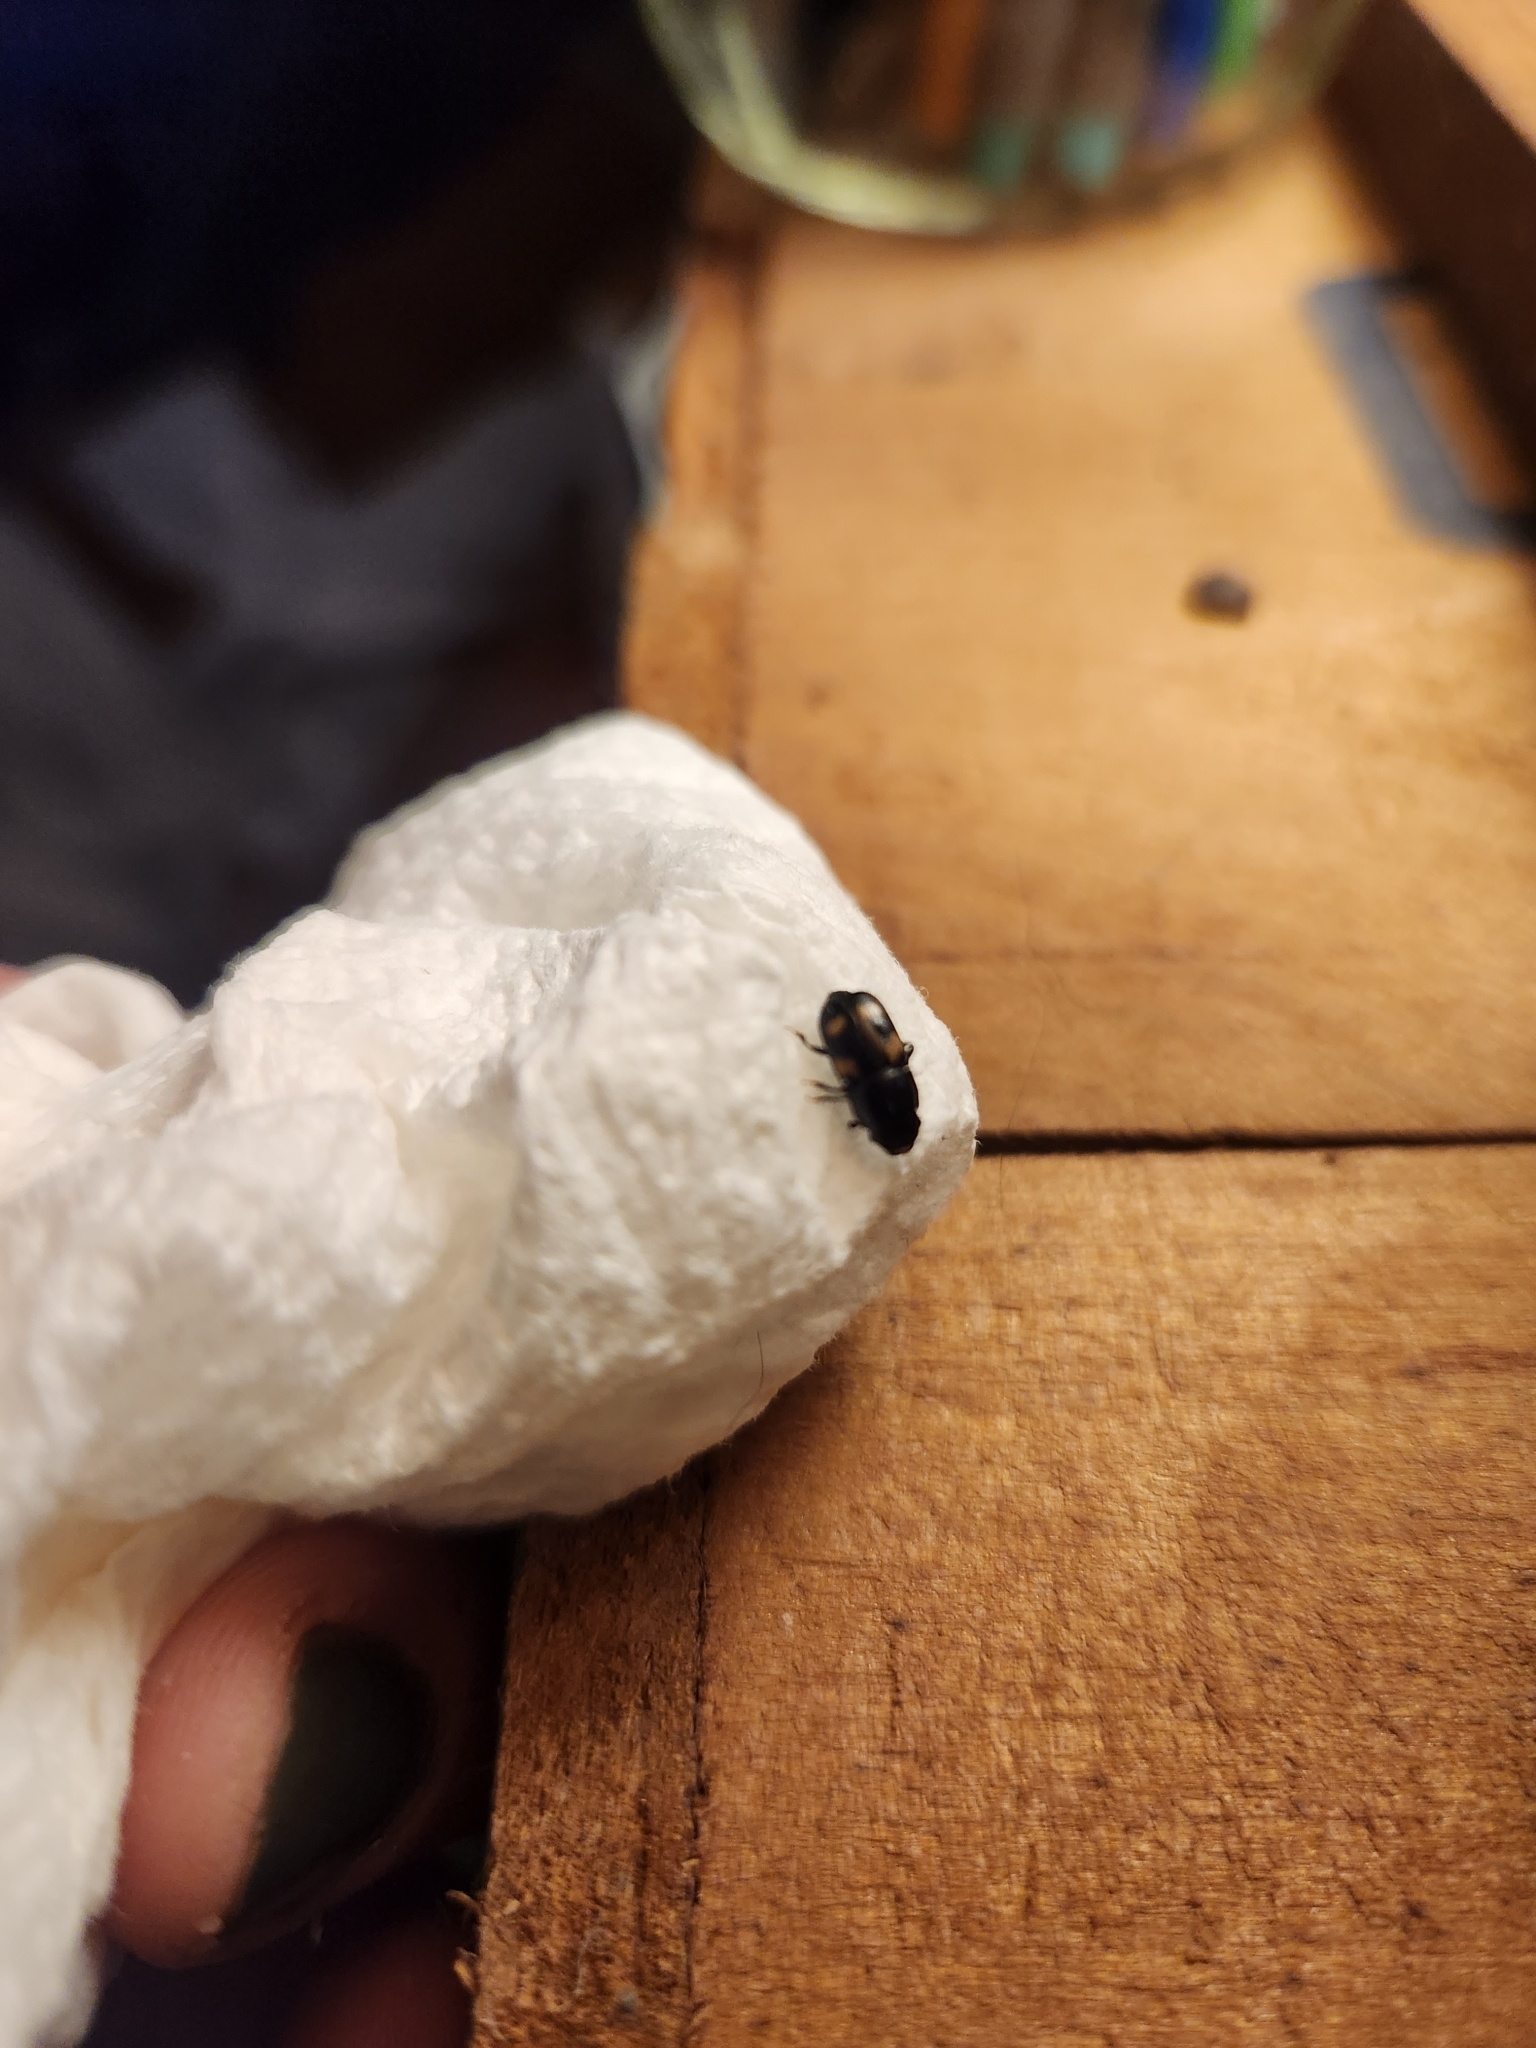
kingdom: Animalia
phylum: Arthropoda
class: Insecta
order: Coleoptera
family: Nitidulidae
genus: Glischrochilus
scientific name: Glischrochilus quadrisignatus
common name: Picnic beetle
